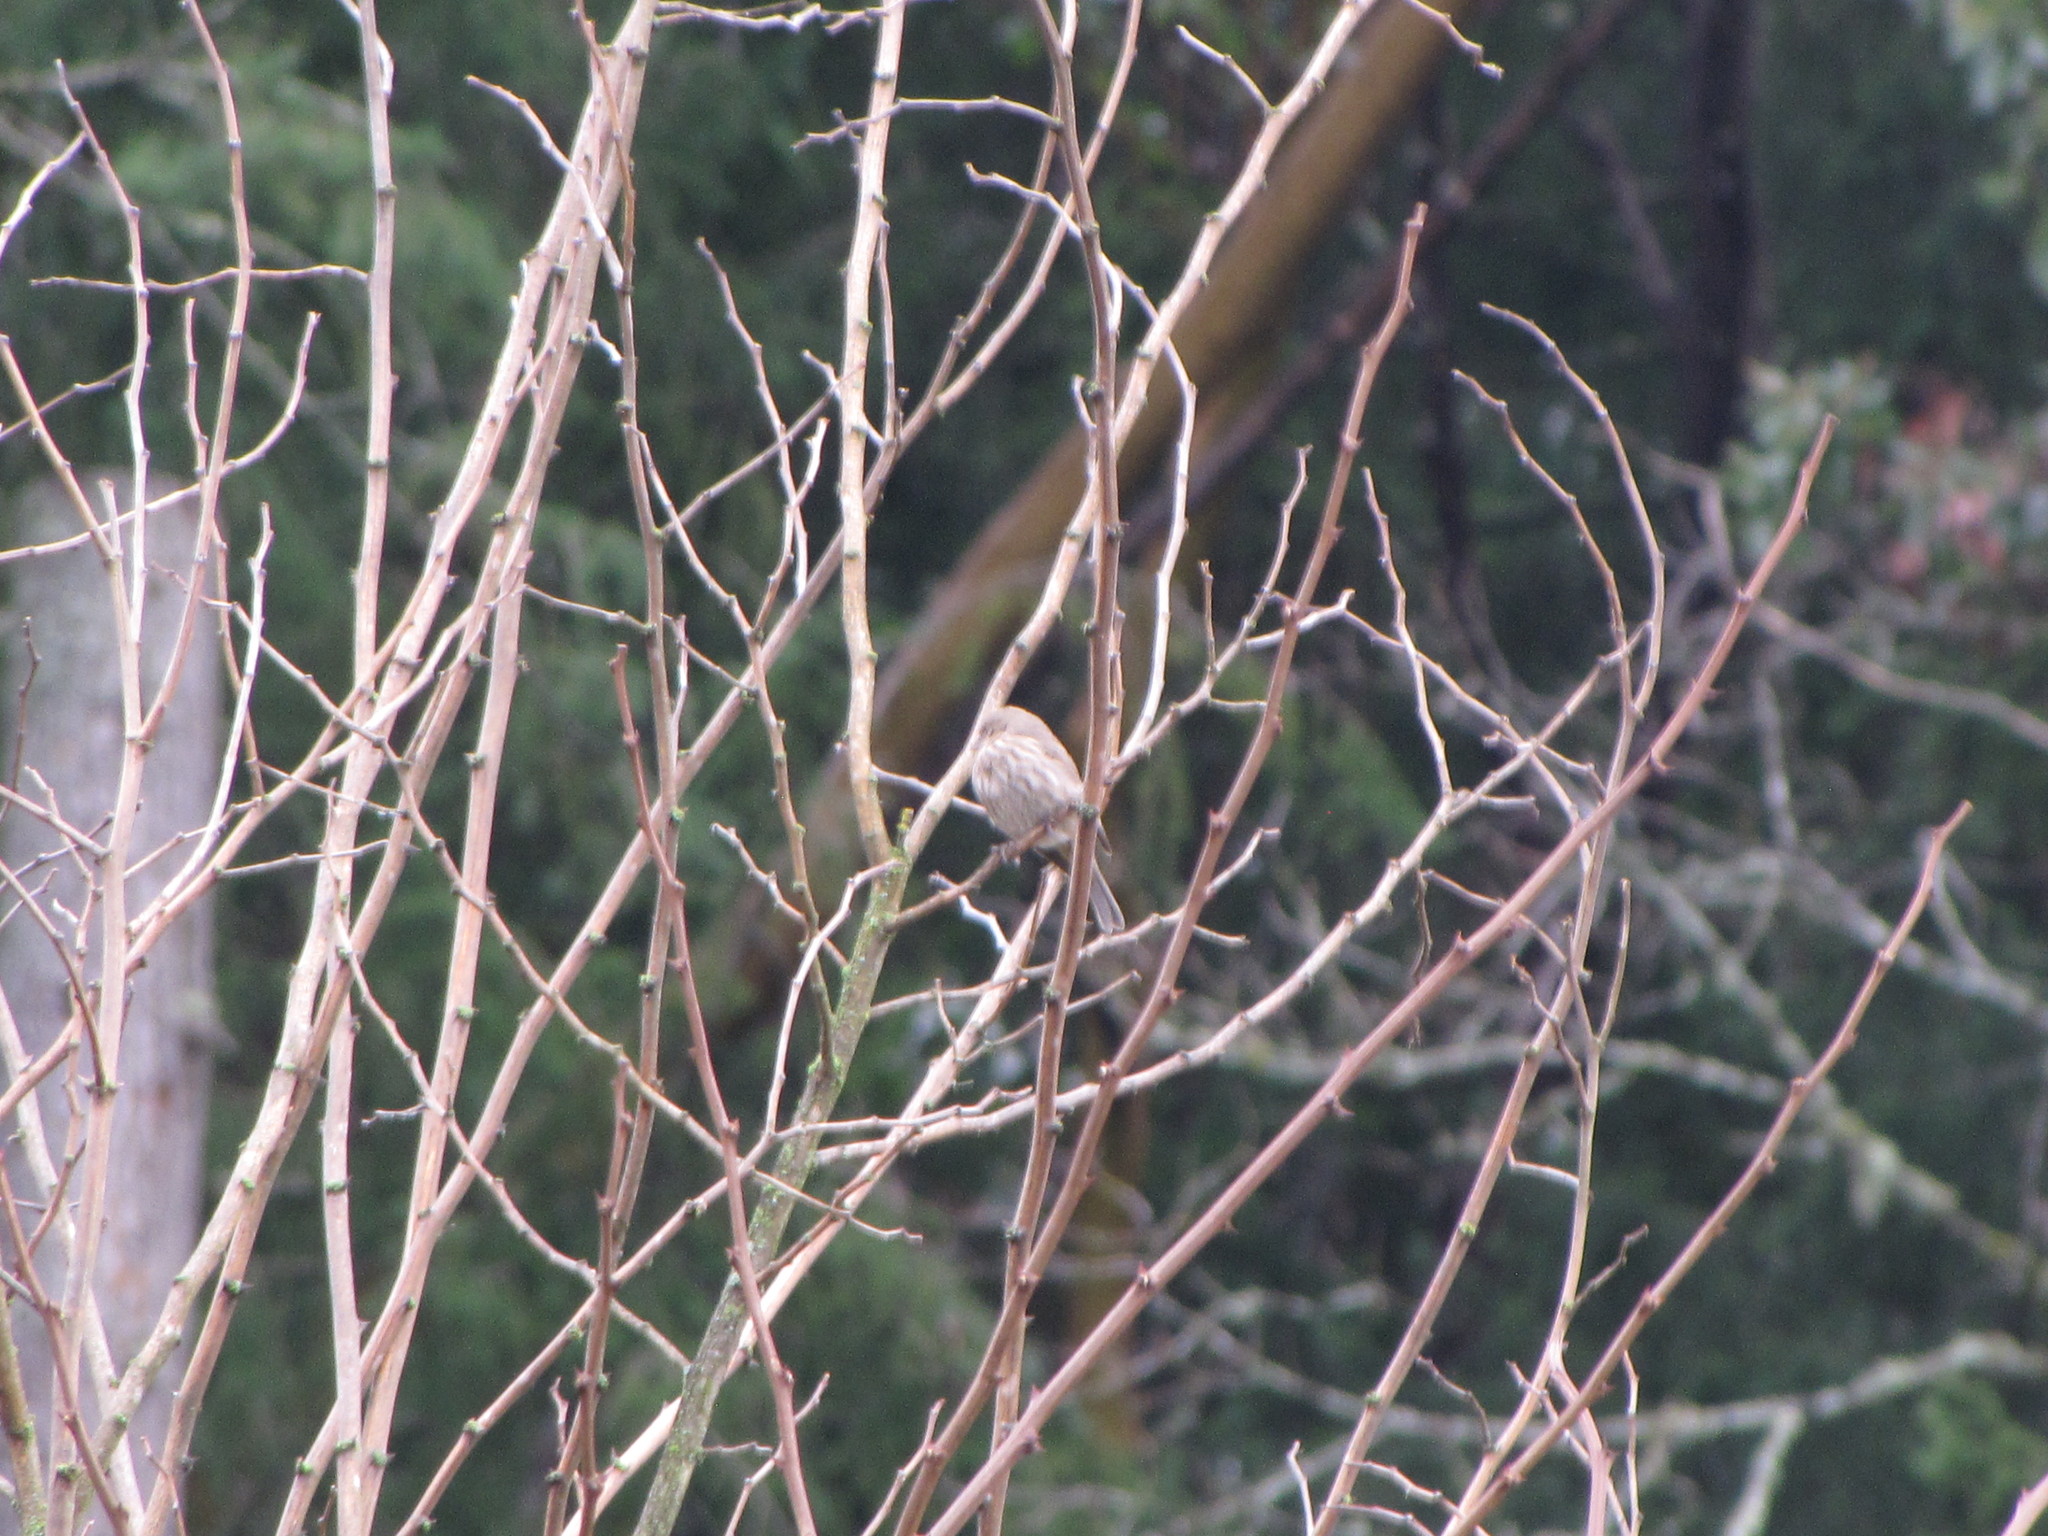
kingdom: Animalia
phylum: Chordata
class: Aves
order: Passeriformes
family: Fringillidae
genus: Haemorhous
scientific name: Haemorhous mexicanus
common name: House finch
